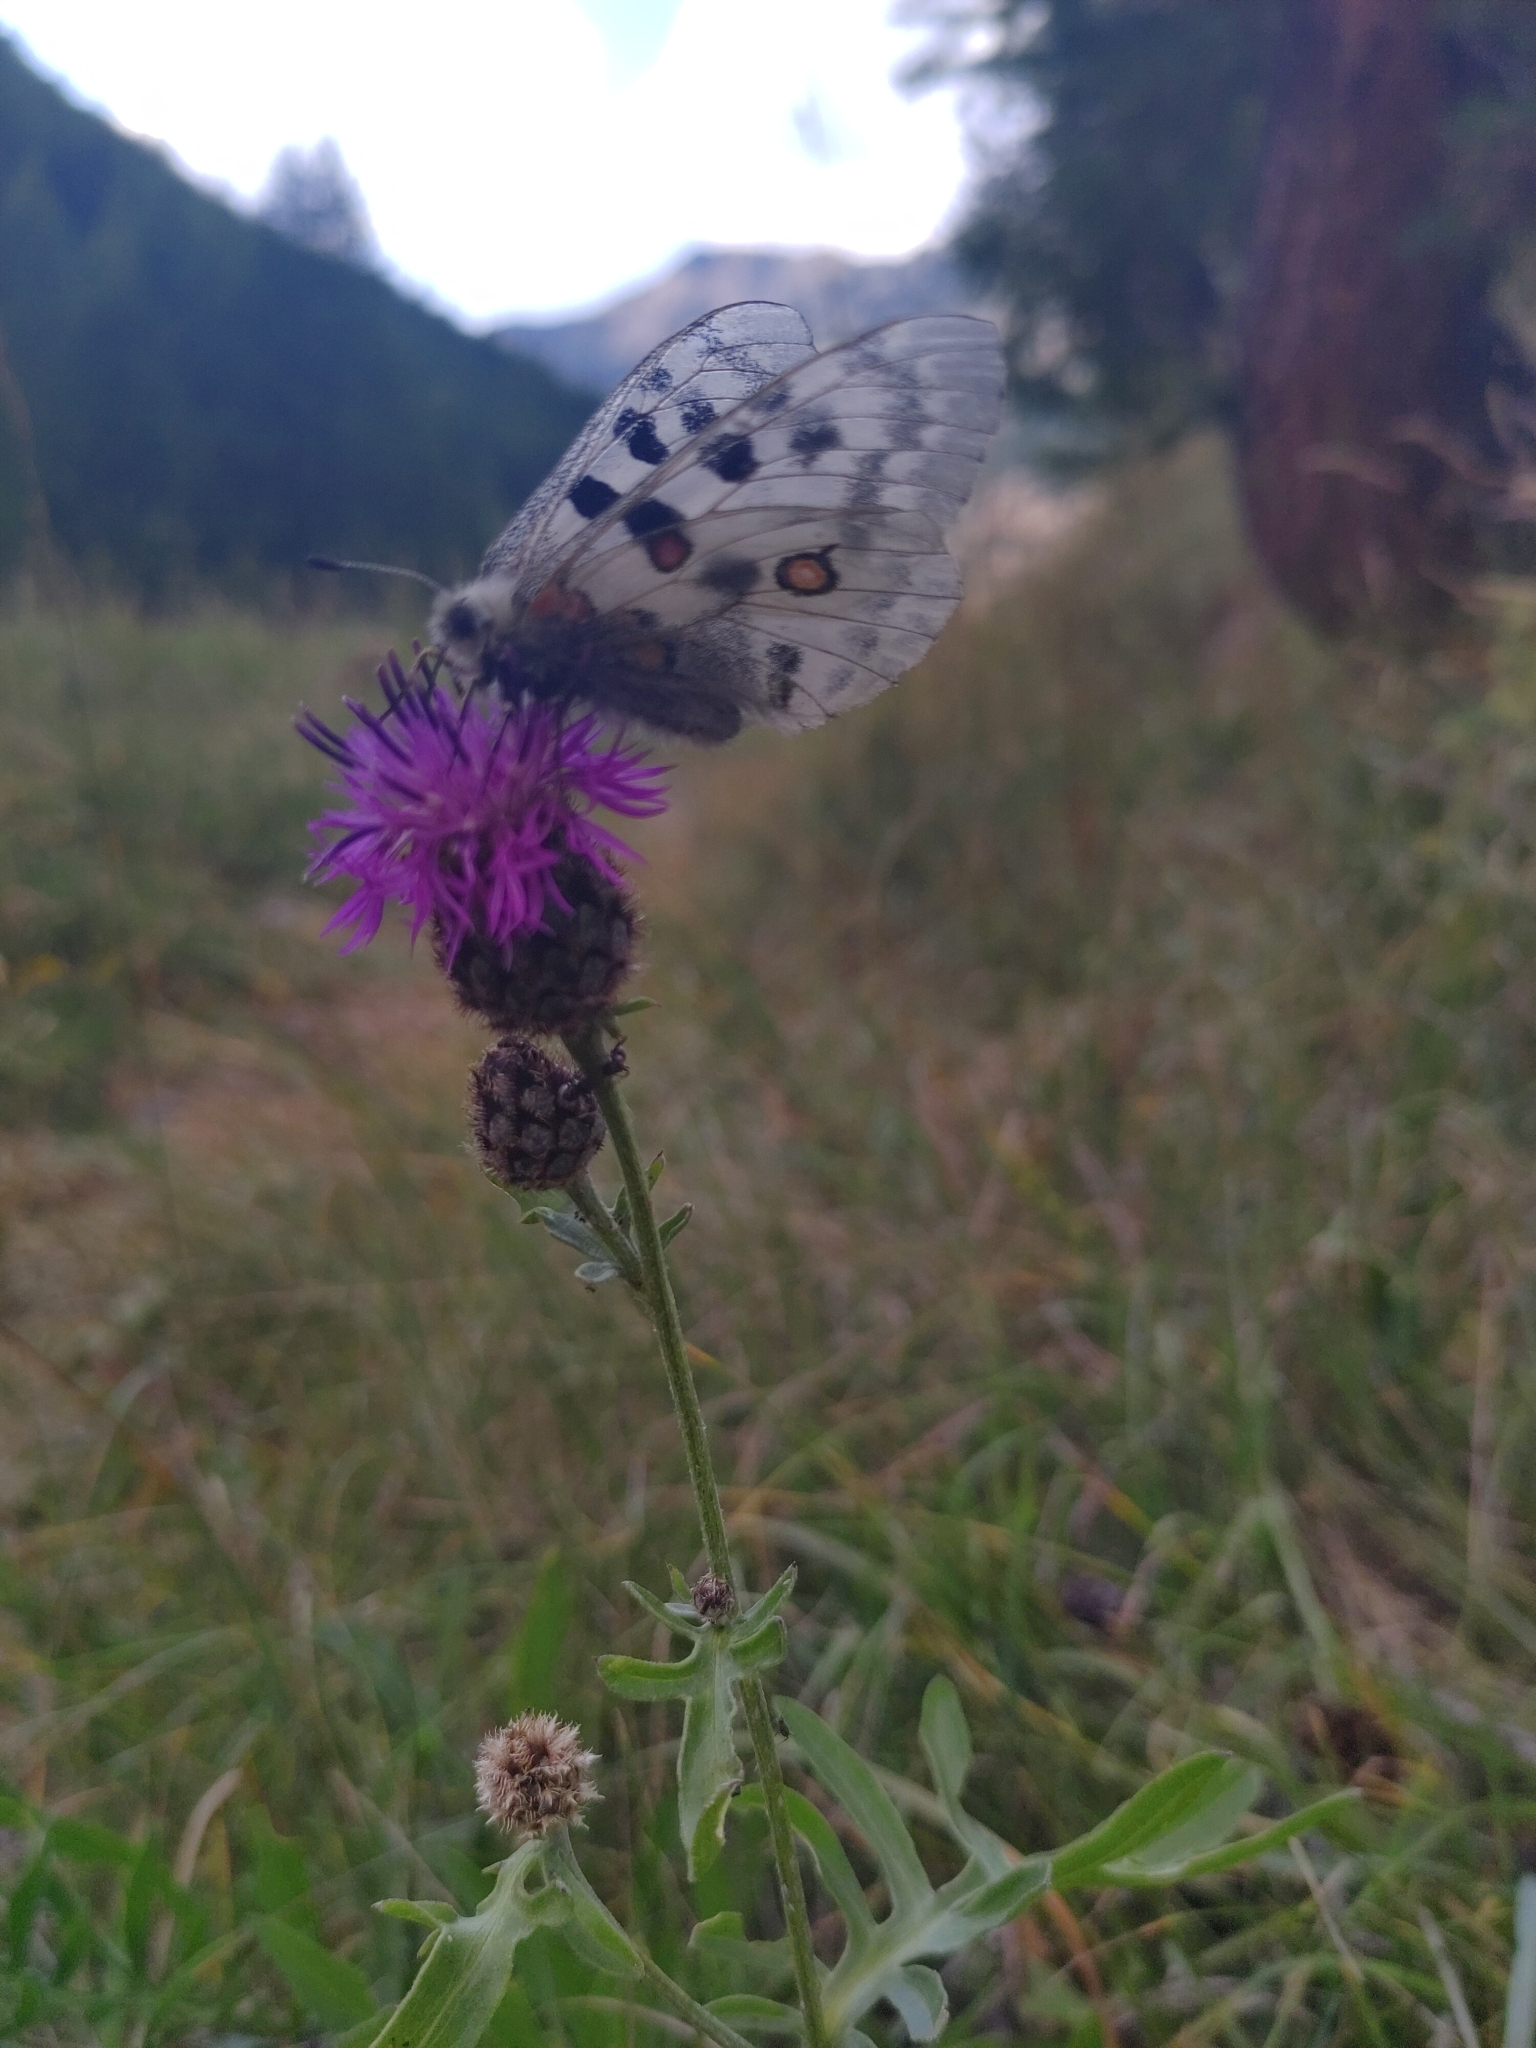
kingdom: Animalia
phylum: Arthropoda
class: Insecta
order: Lepidoptera
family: Papilionidae
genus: Parnassius
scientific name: Parnassius apollo
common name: Apollo
